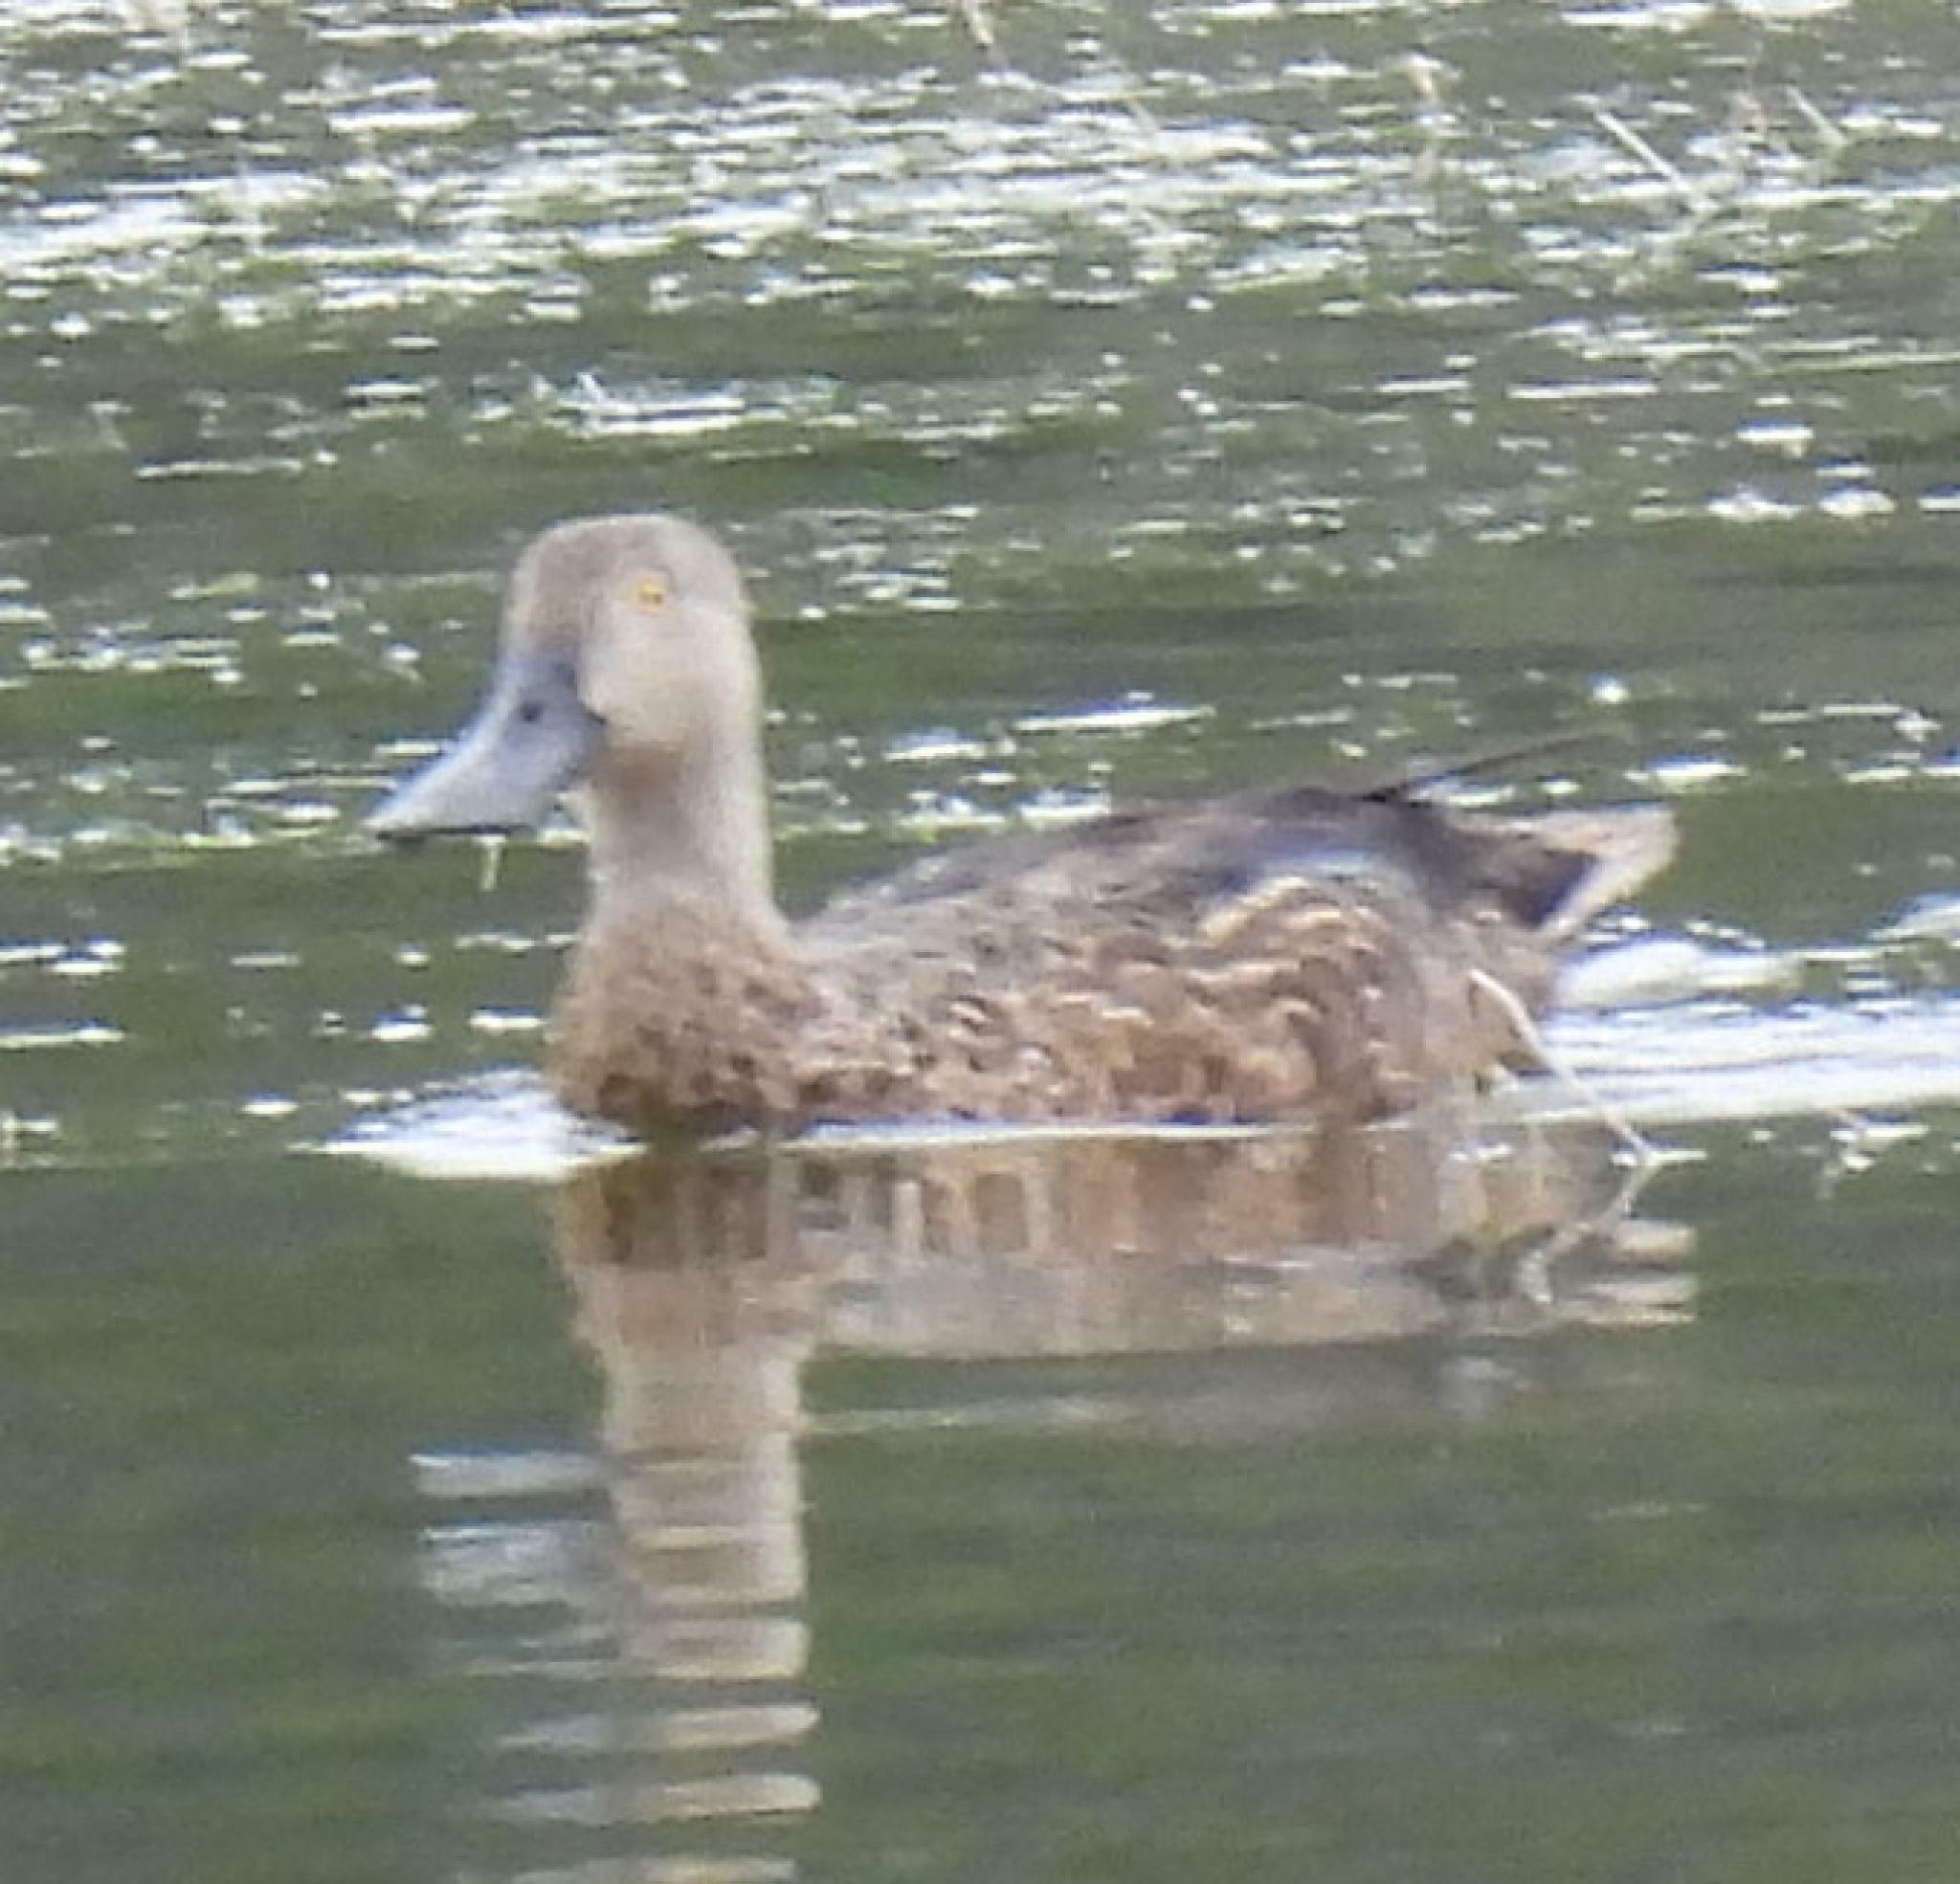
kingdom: Animalia
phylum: Chordata
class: Aves
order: Anseriformes
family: Anatidae
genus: Spatula
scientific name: Spatula smithii
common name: Cape shoveler
